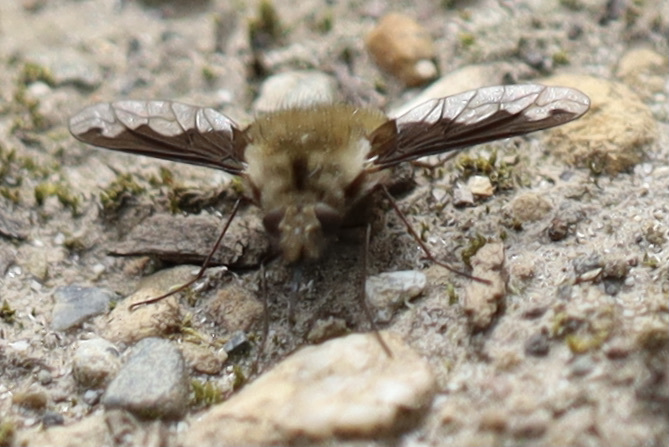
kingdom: Animalia
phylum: Arthropoda
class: Insecta
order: Diptera
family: Bombyliidae
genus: Bombylius
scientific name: Bombylius major
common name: Bee fly
